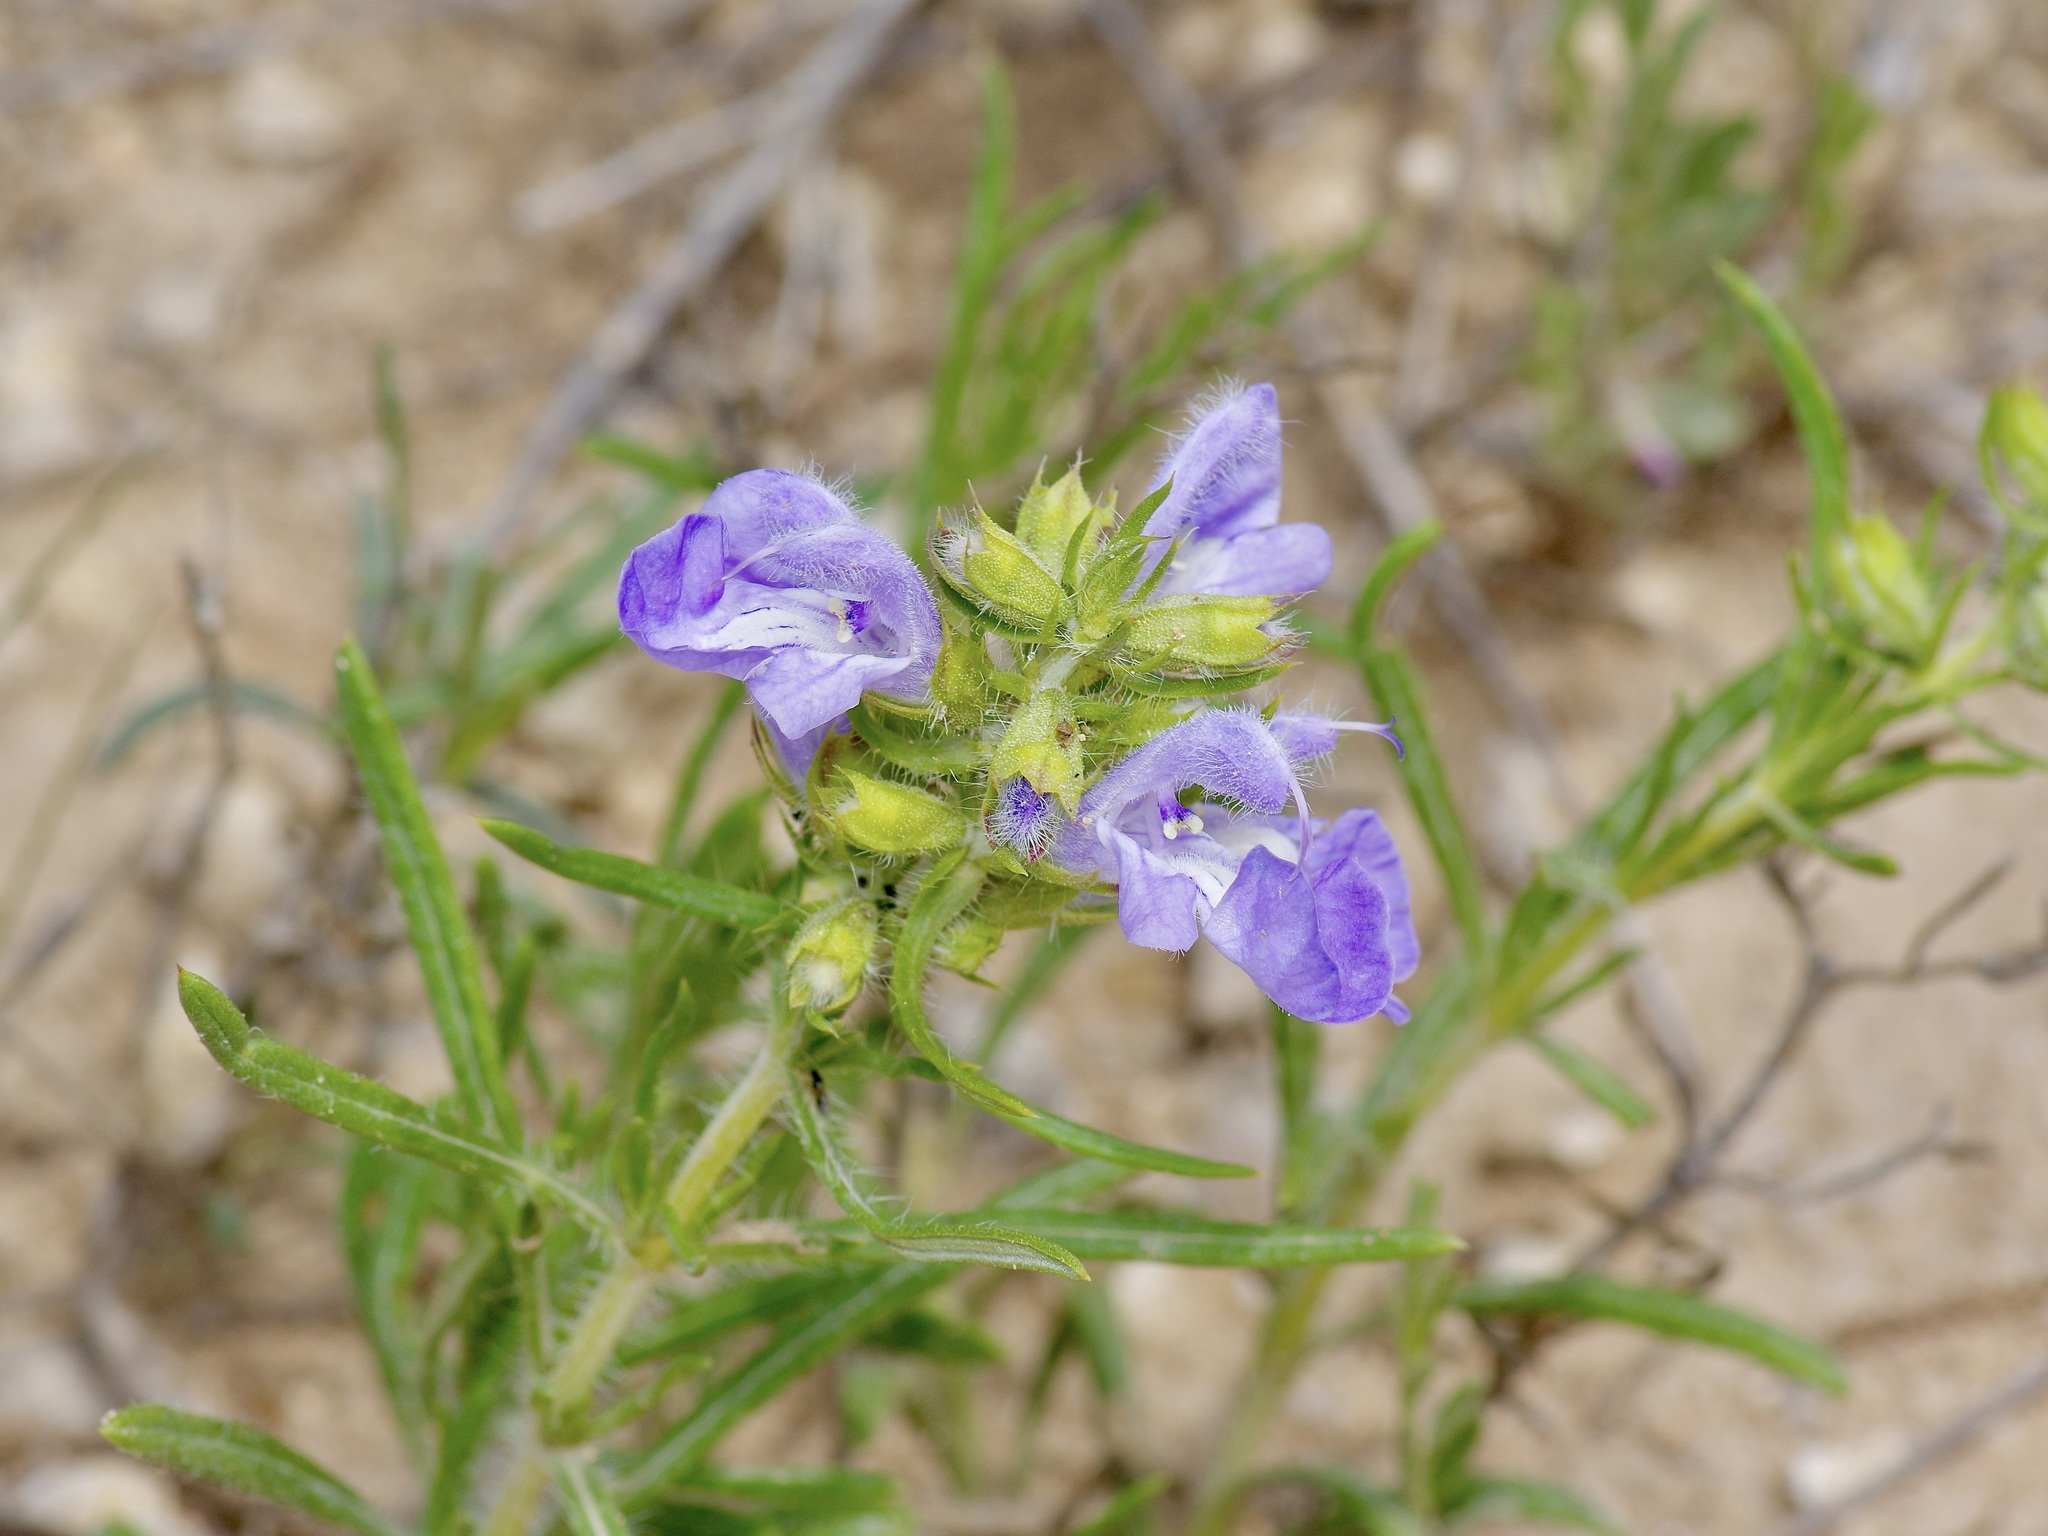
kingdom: Plantae
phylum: Tracheophyta
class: Magnoliopsida
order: Lamiales
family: Lamiaceae
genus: Salvia
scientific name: Salvia engelmannii
